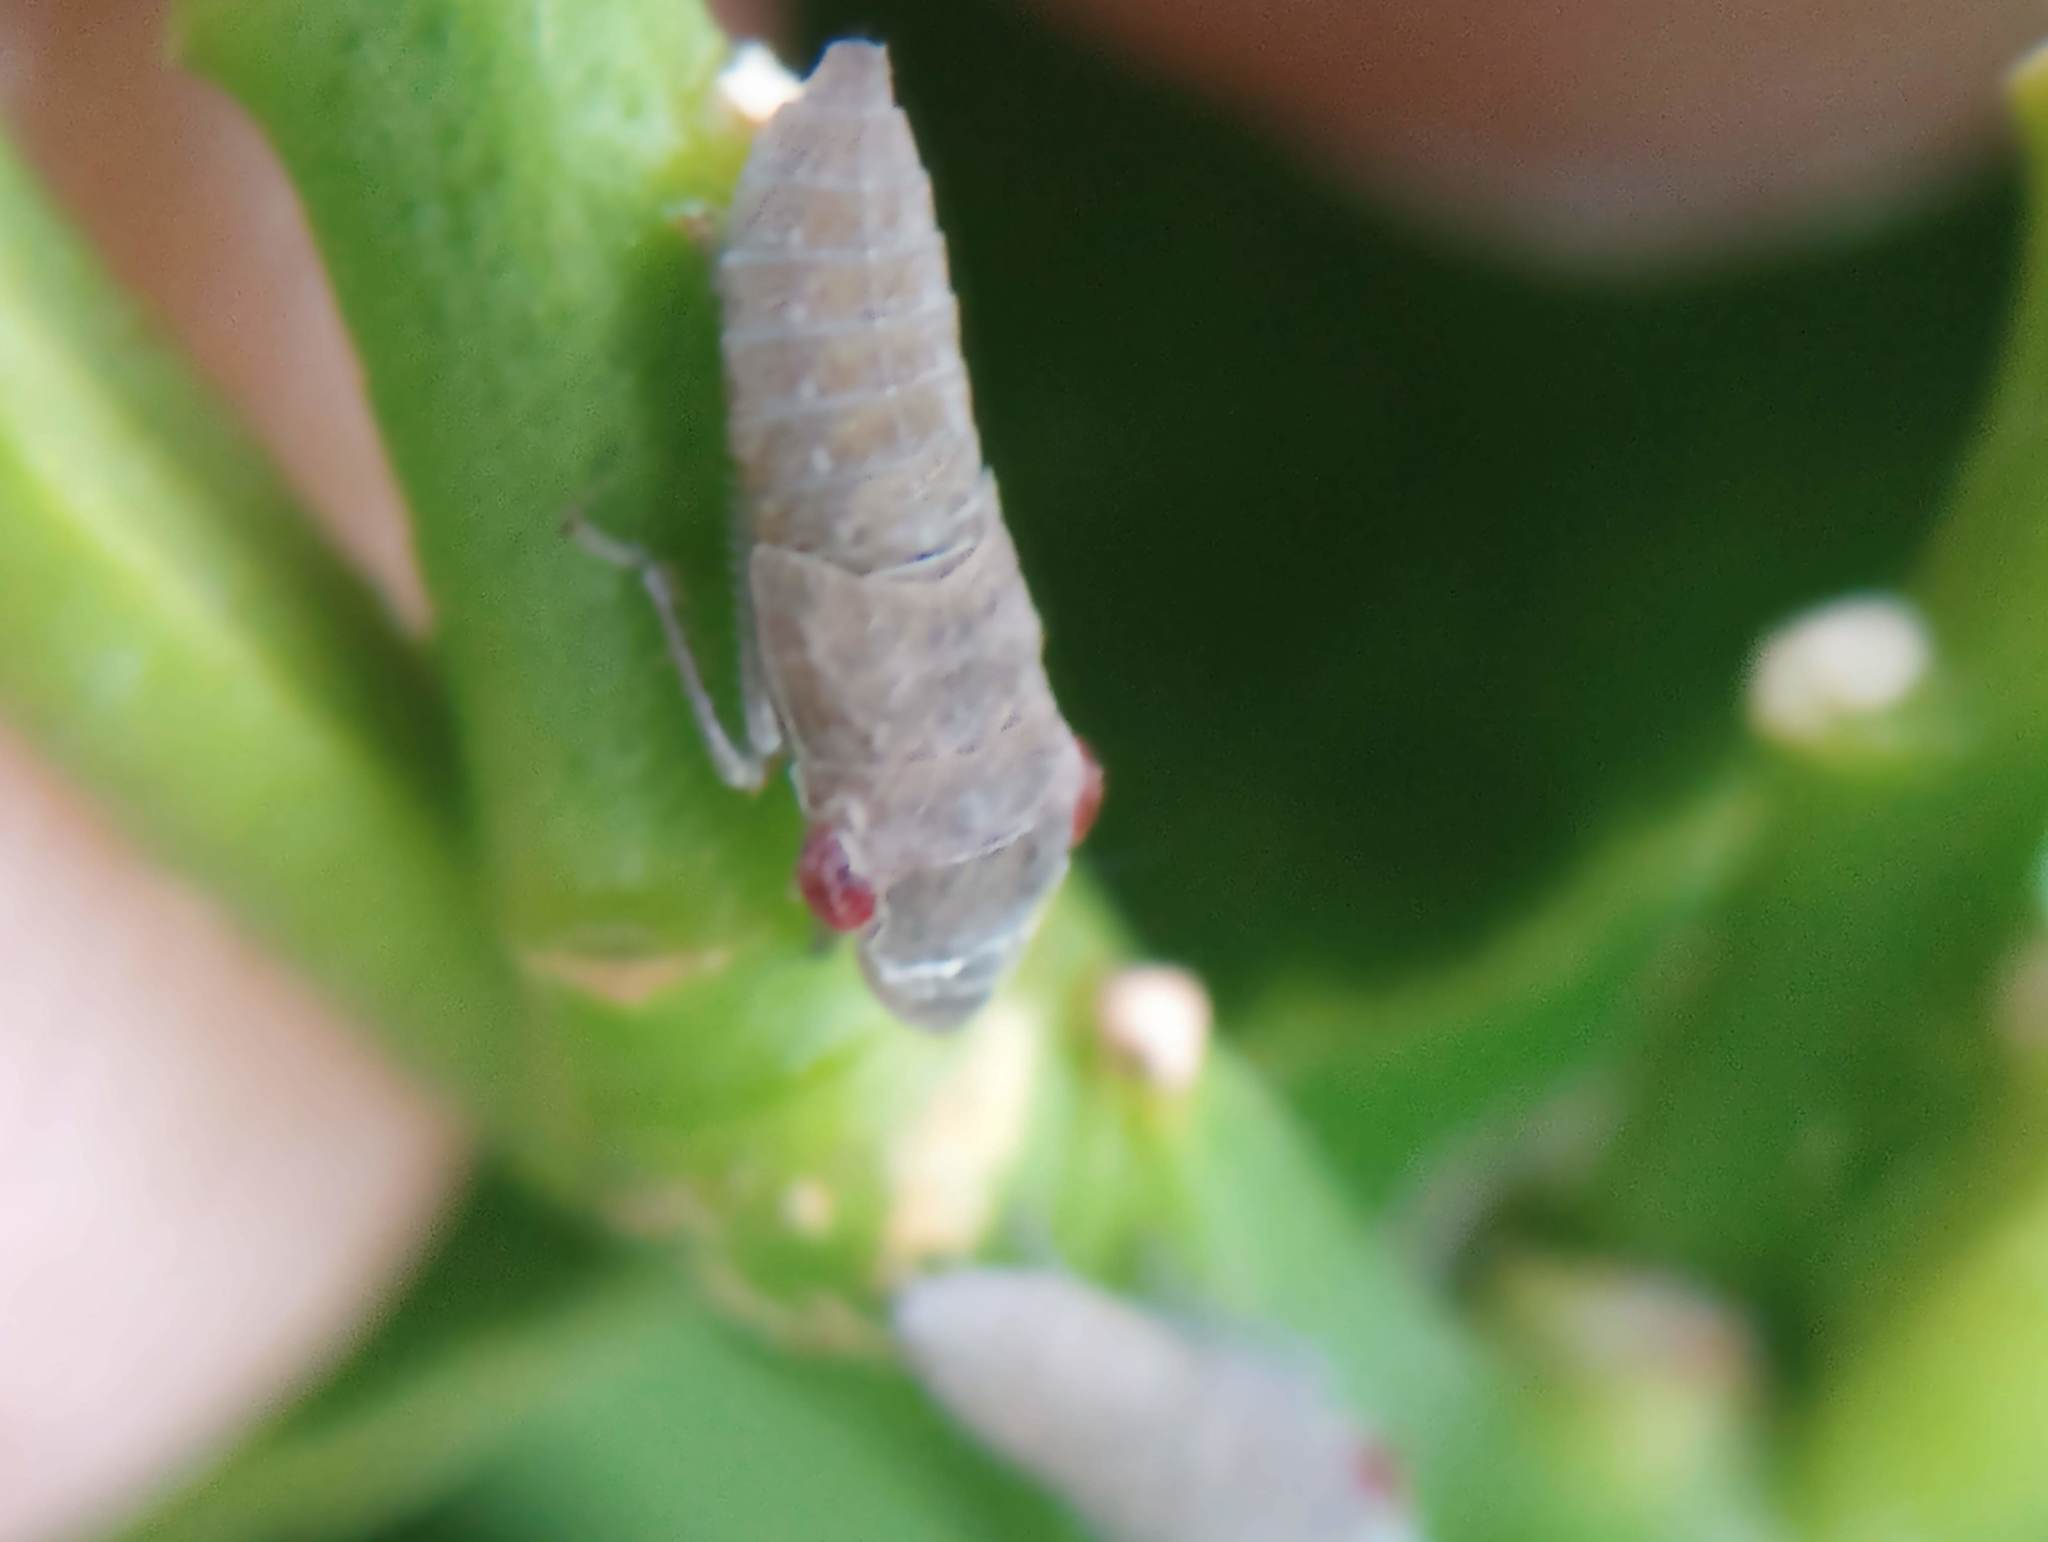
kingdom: Animalia
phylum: Arthropoda
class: Insecta
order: Hemiptera
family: Cicadellidae
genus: Homalodisca
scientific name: Homalodisca
